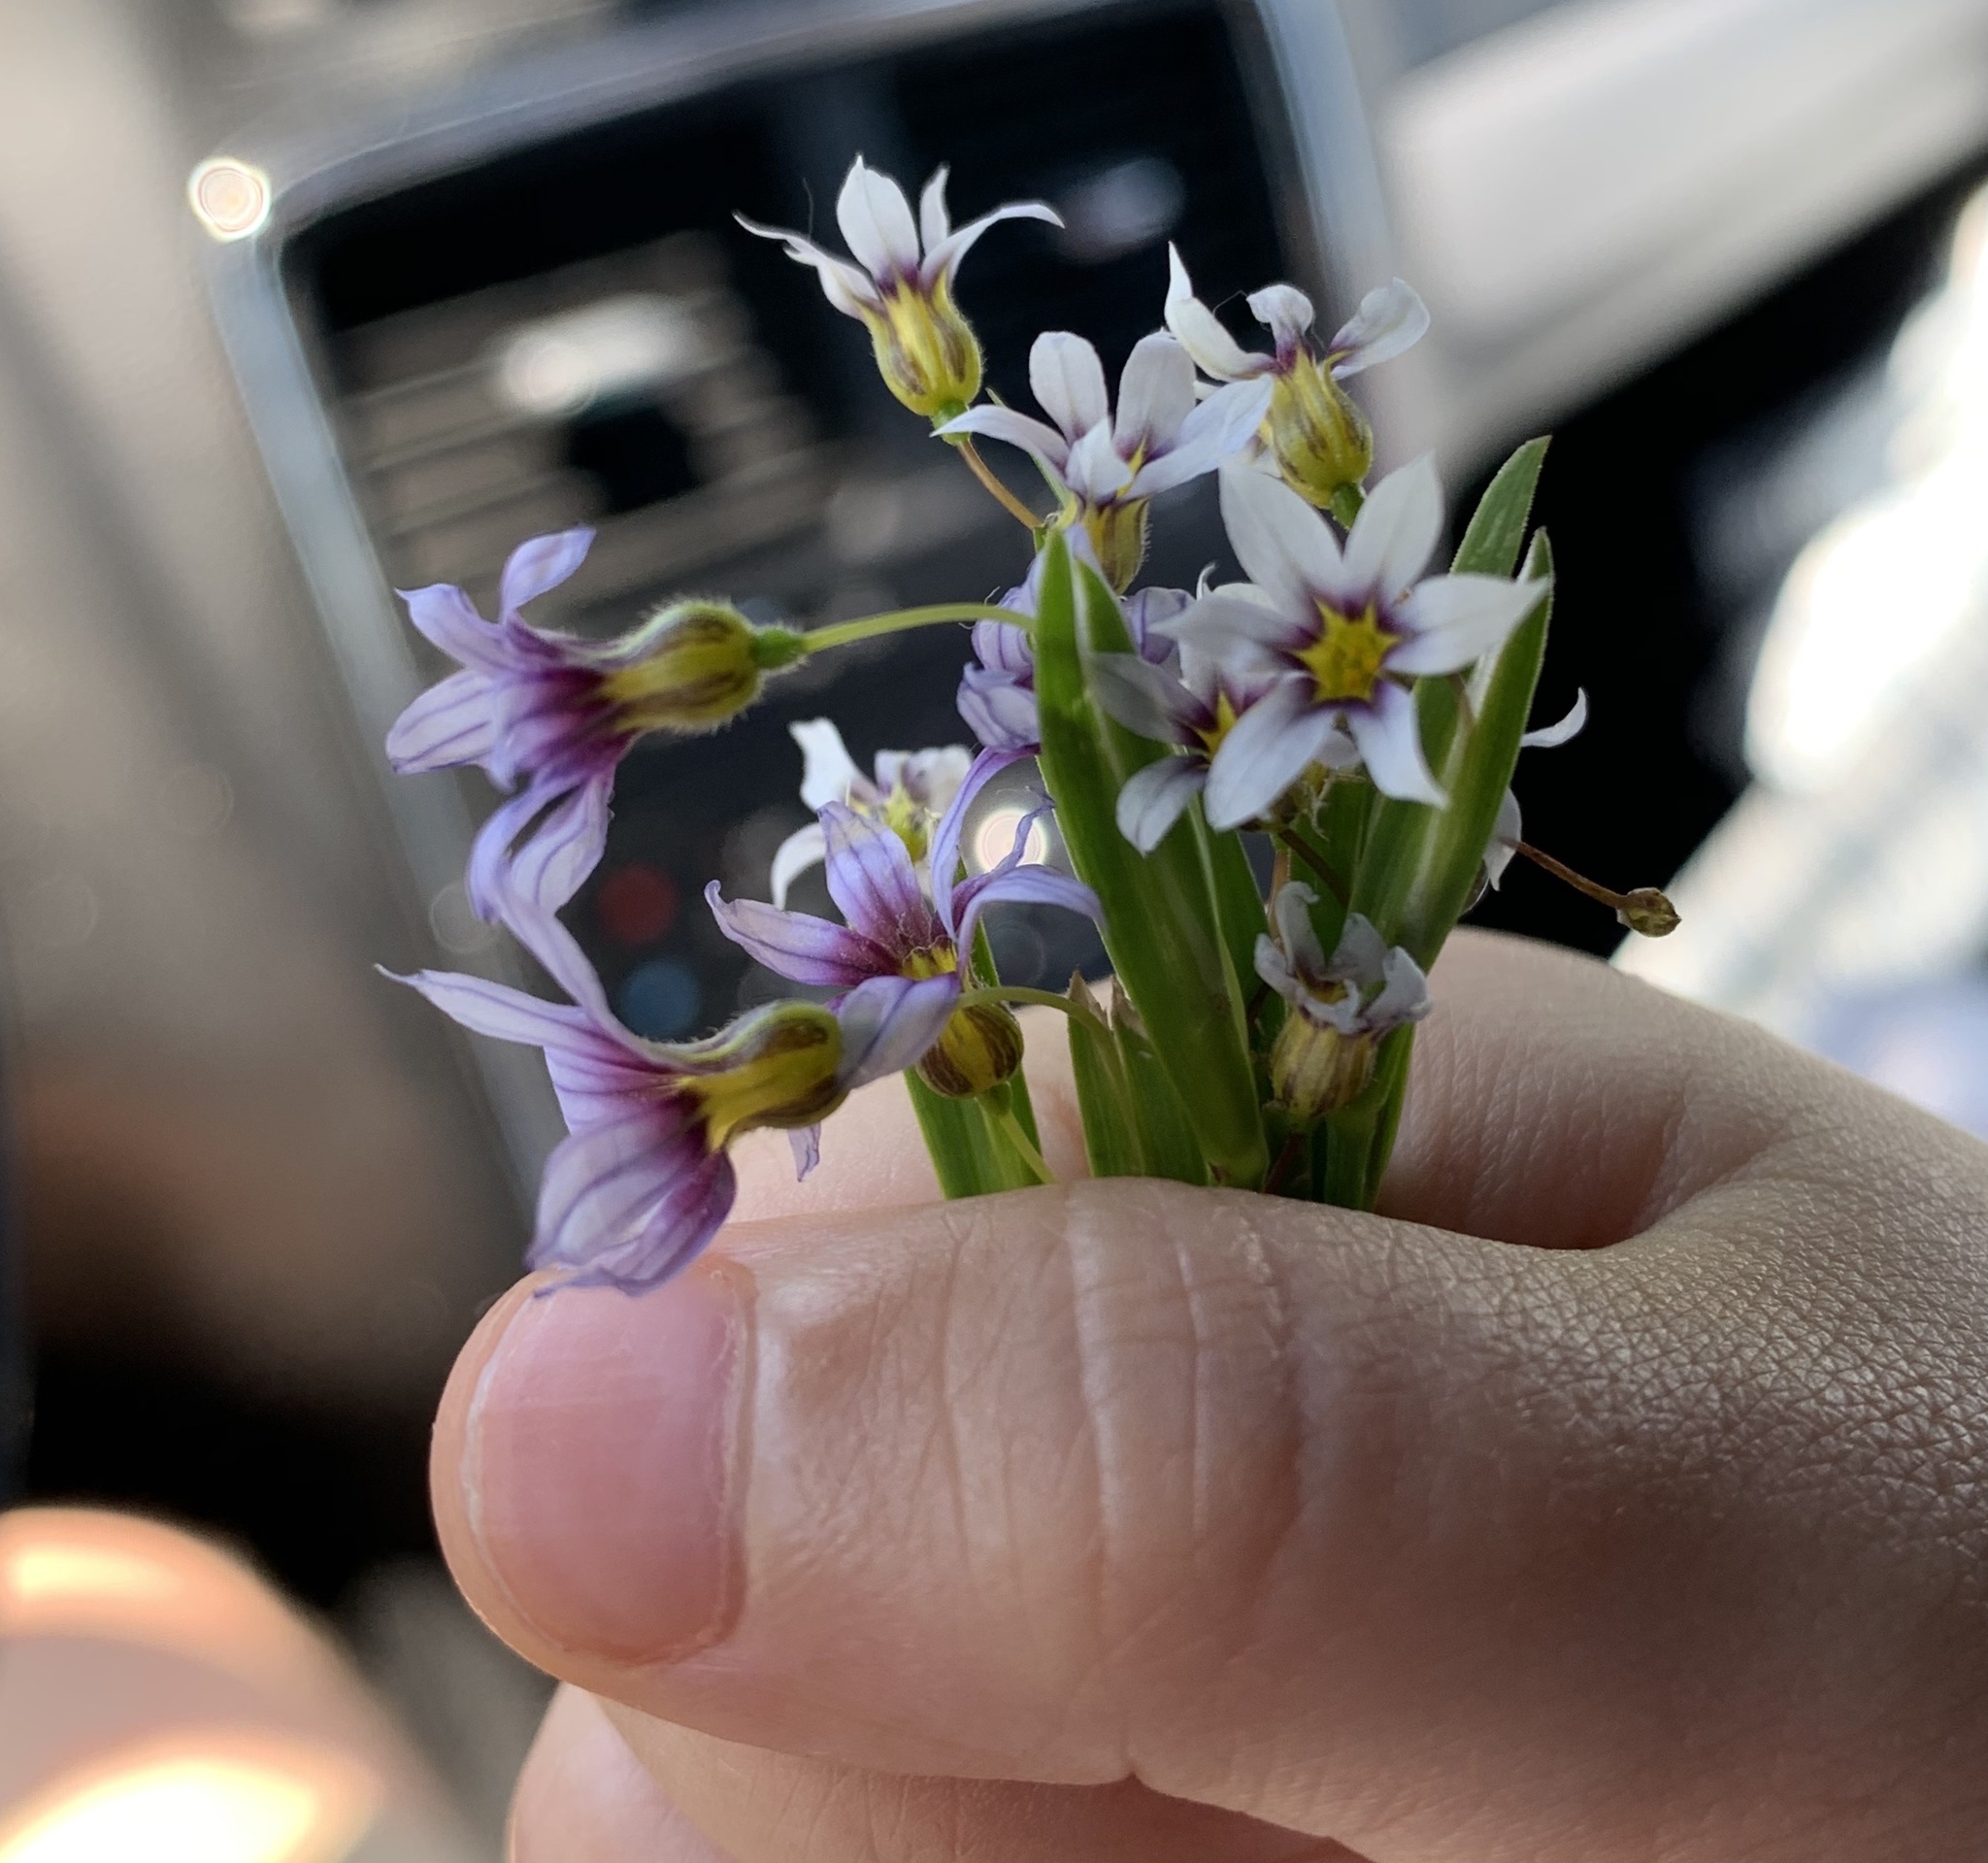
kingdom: Plantae
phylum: Tracheophyta
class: Liliopsida
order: Asparagales
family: Iridaceae
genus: Sisyrinchium
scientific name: Sisyrinchium micranthum
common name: Bermuda pigroot
